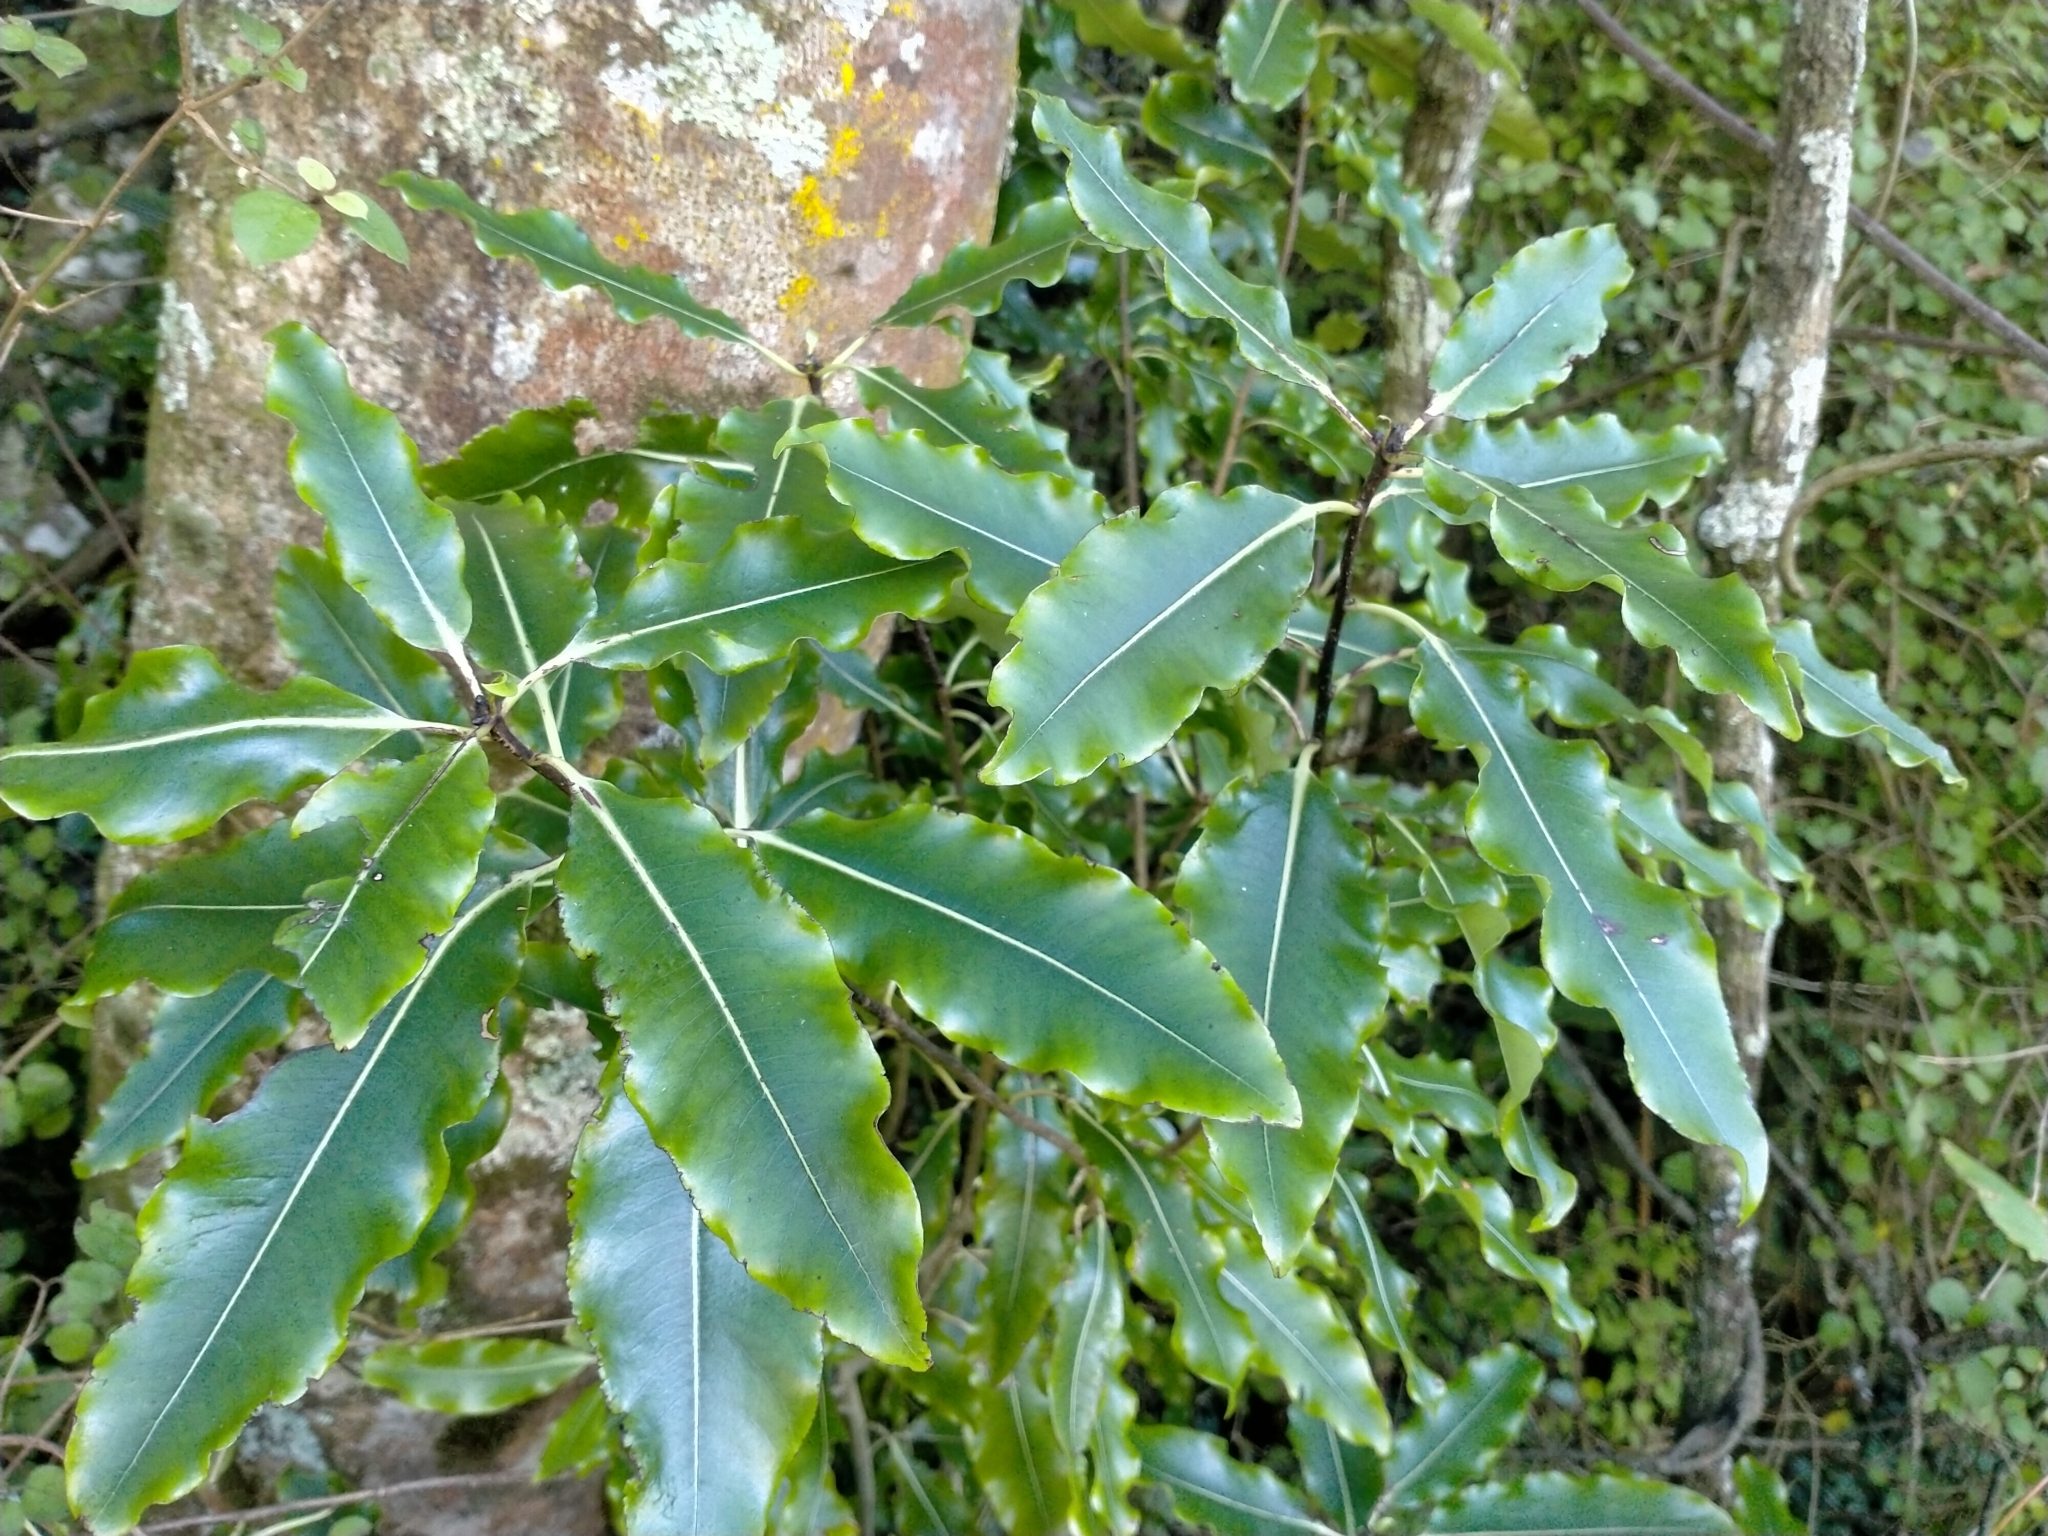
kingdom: Plantae
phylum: Tracheophyta
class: Magnoliopsida
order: Apiales
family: Pittosporaceae
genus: Pittosporum
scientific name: Pittosporum eugenioides
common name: Lemonwood
